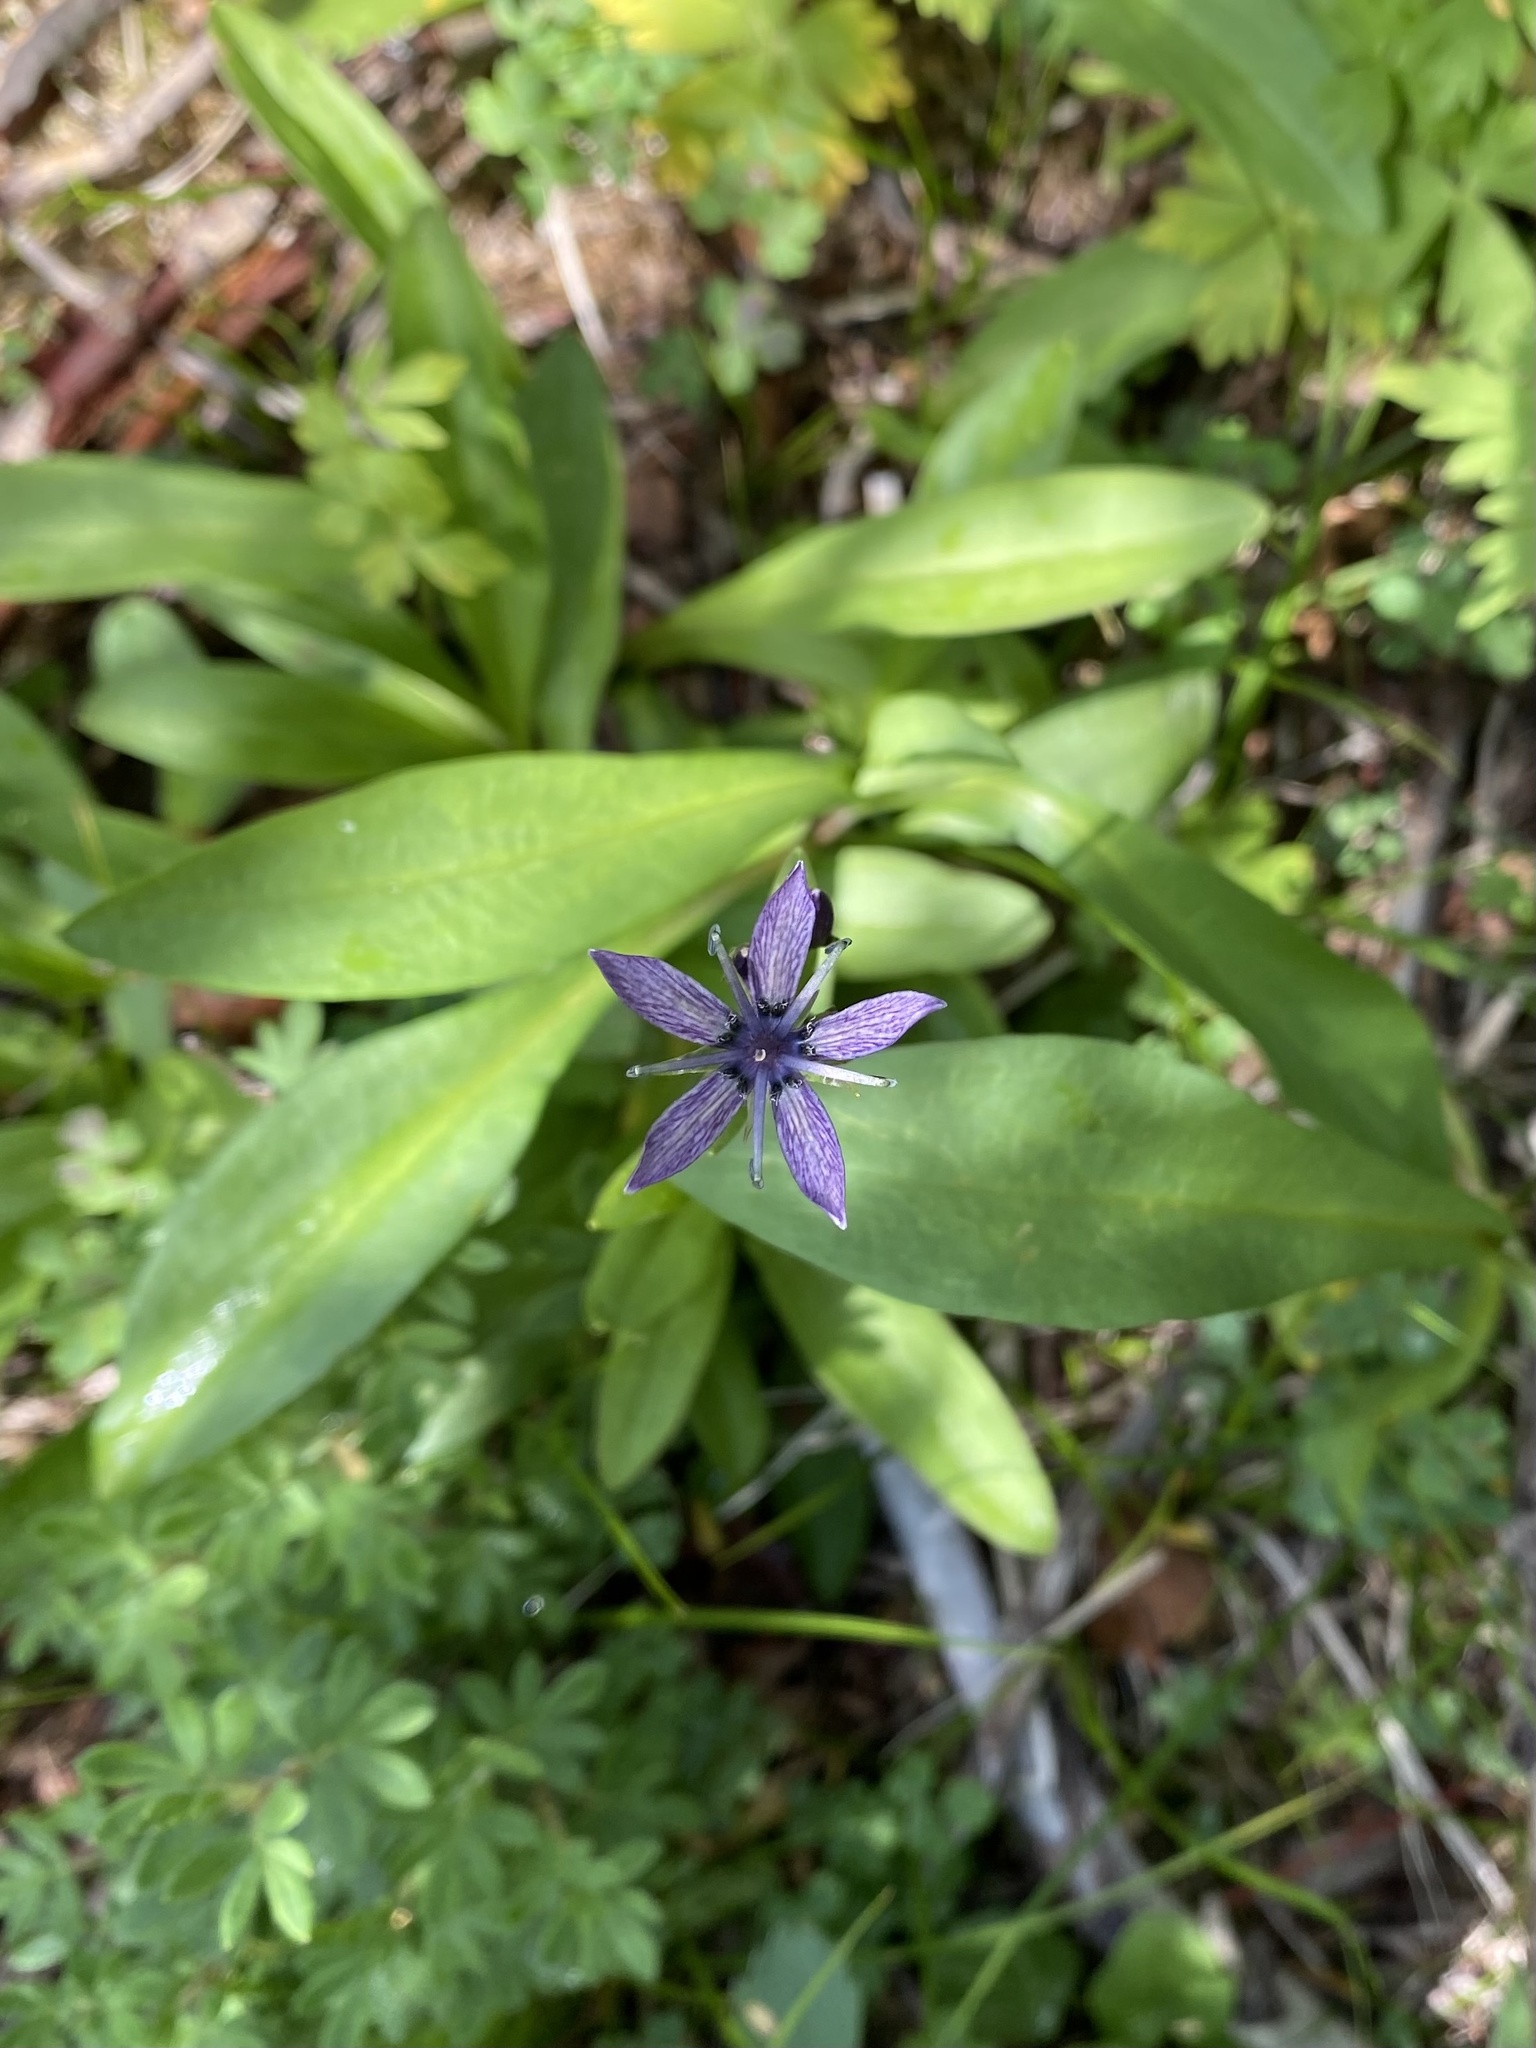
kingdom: Plantae
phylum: Tracheophyta
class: Magnoliopsida
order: Gentianales
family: Gentianaceae
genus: Swertia
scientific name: Swertia perennis
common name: Alpine bog swertia
